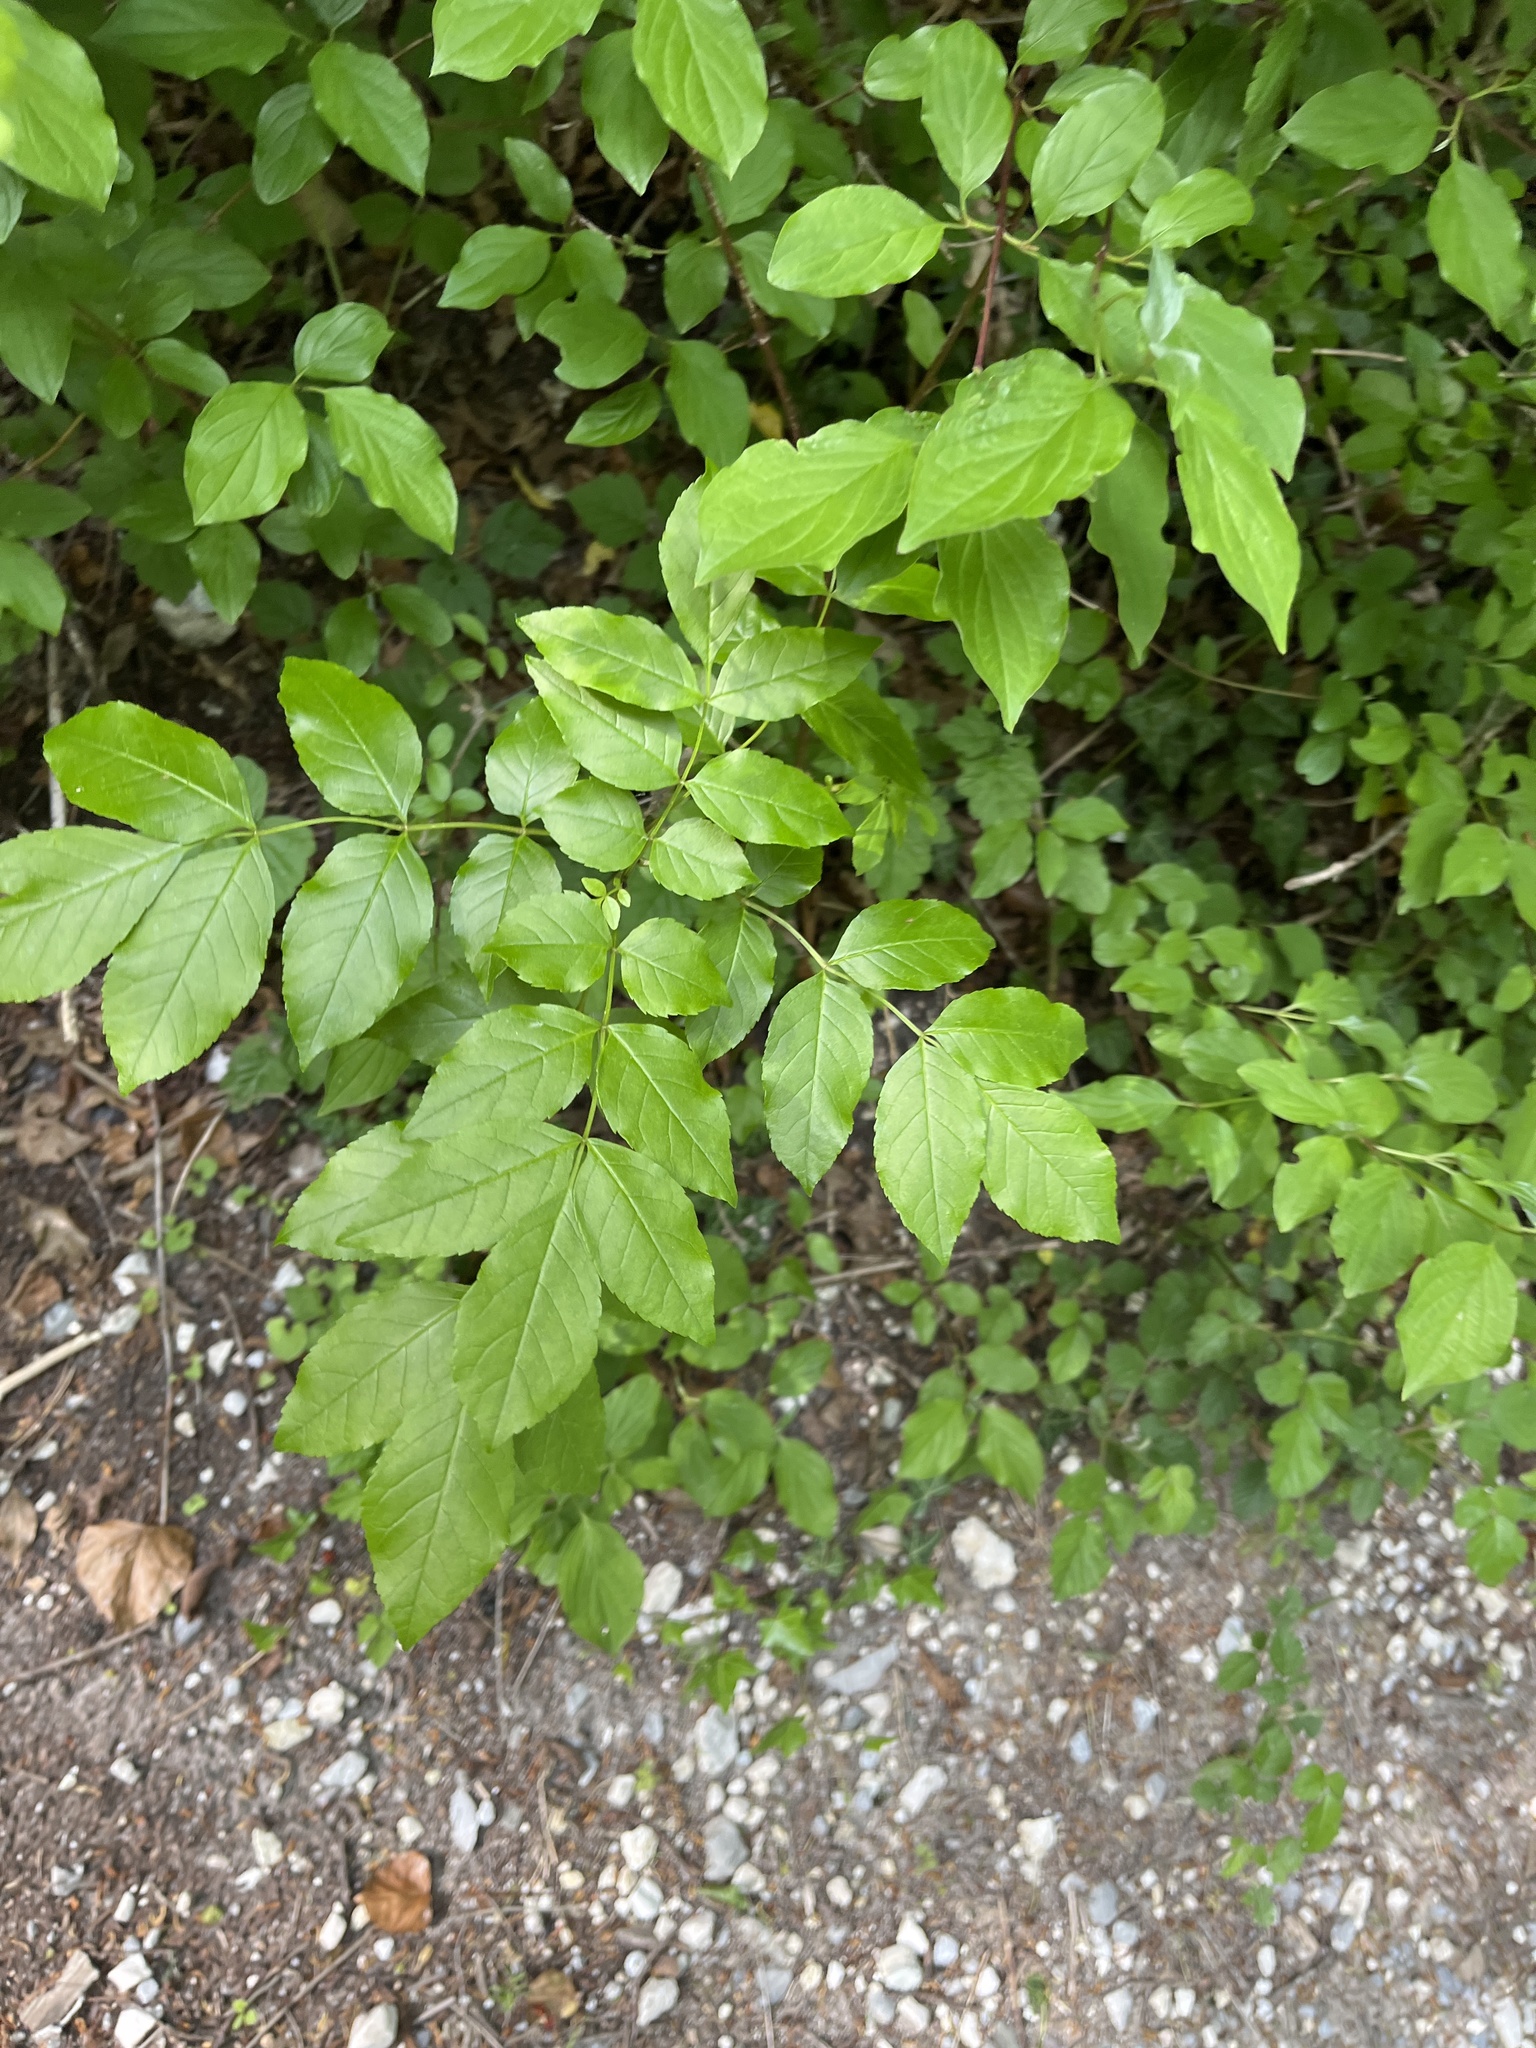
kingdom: Plantae
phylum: Tracheophyta
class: Magnoliopsida
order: Lamiales
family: Oleaceae
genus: Fraxinus
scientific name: Fraxinus ornus
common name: Manna ash
